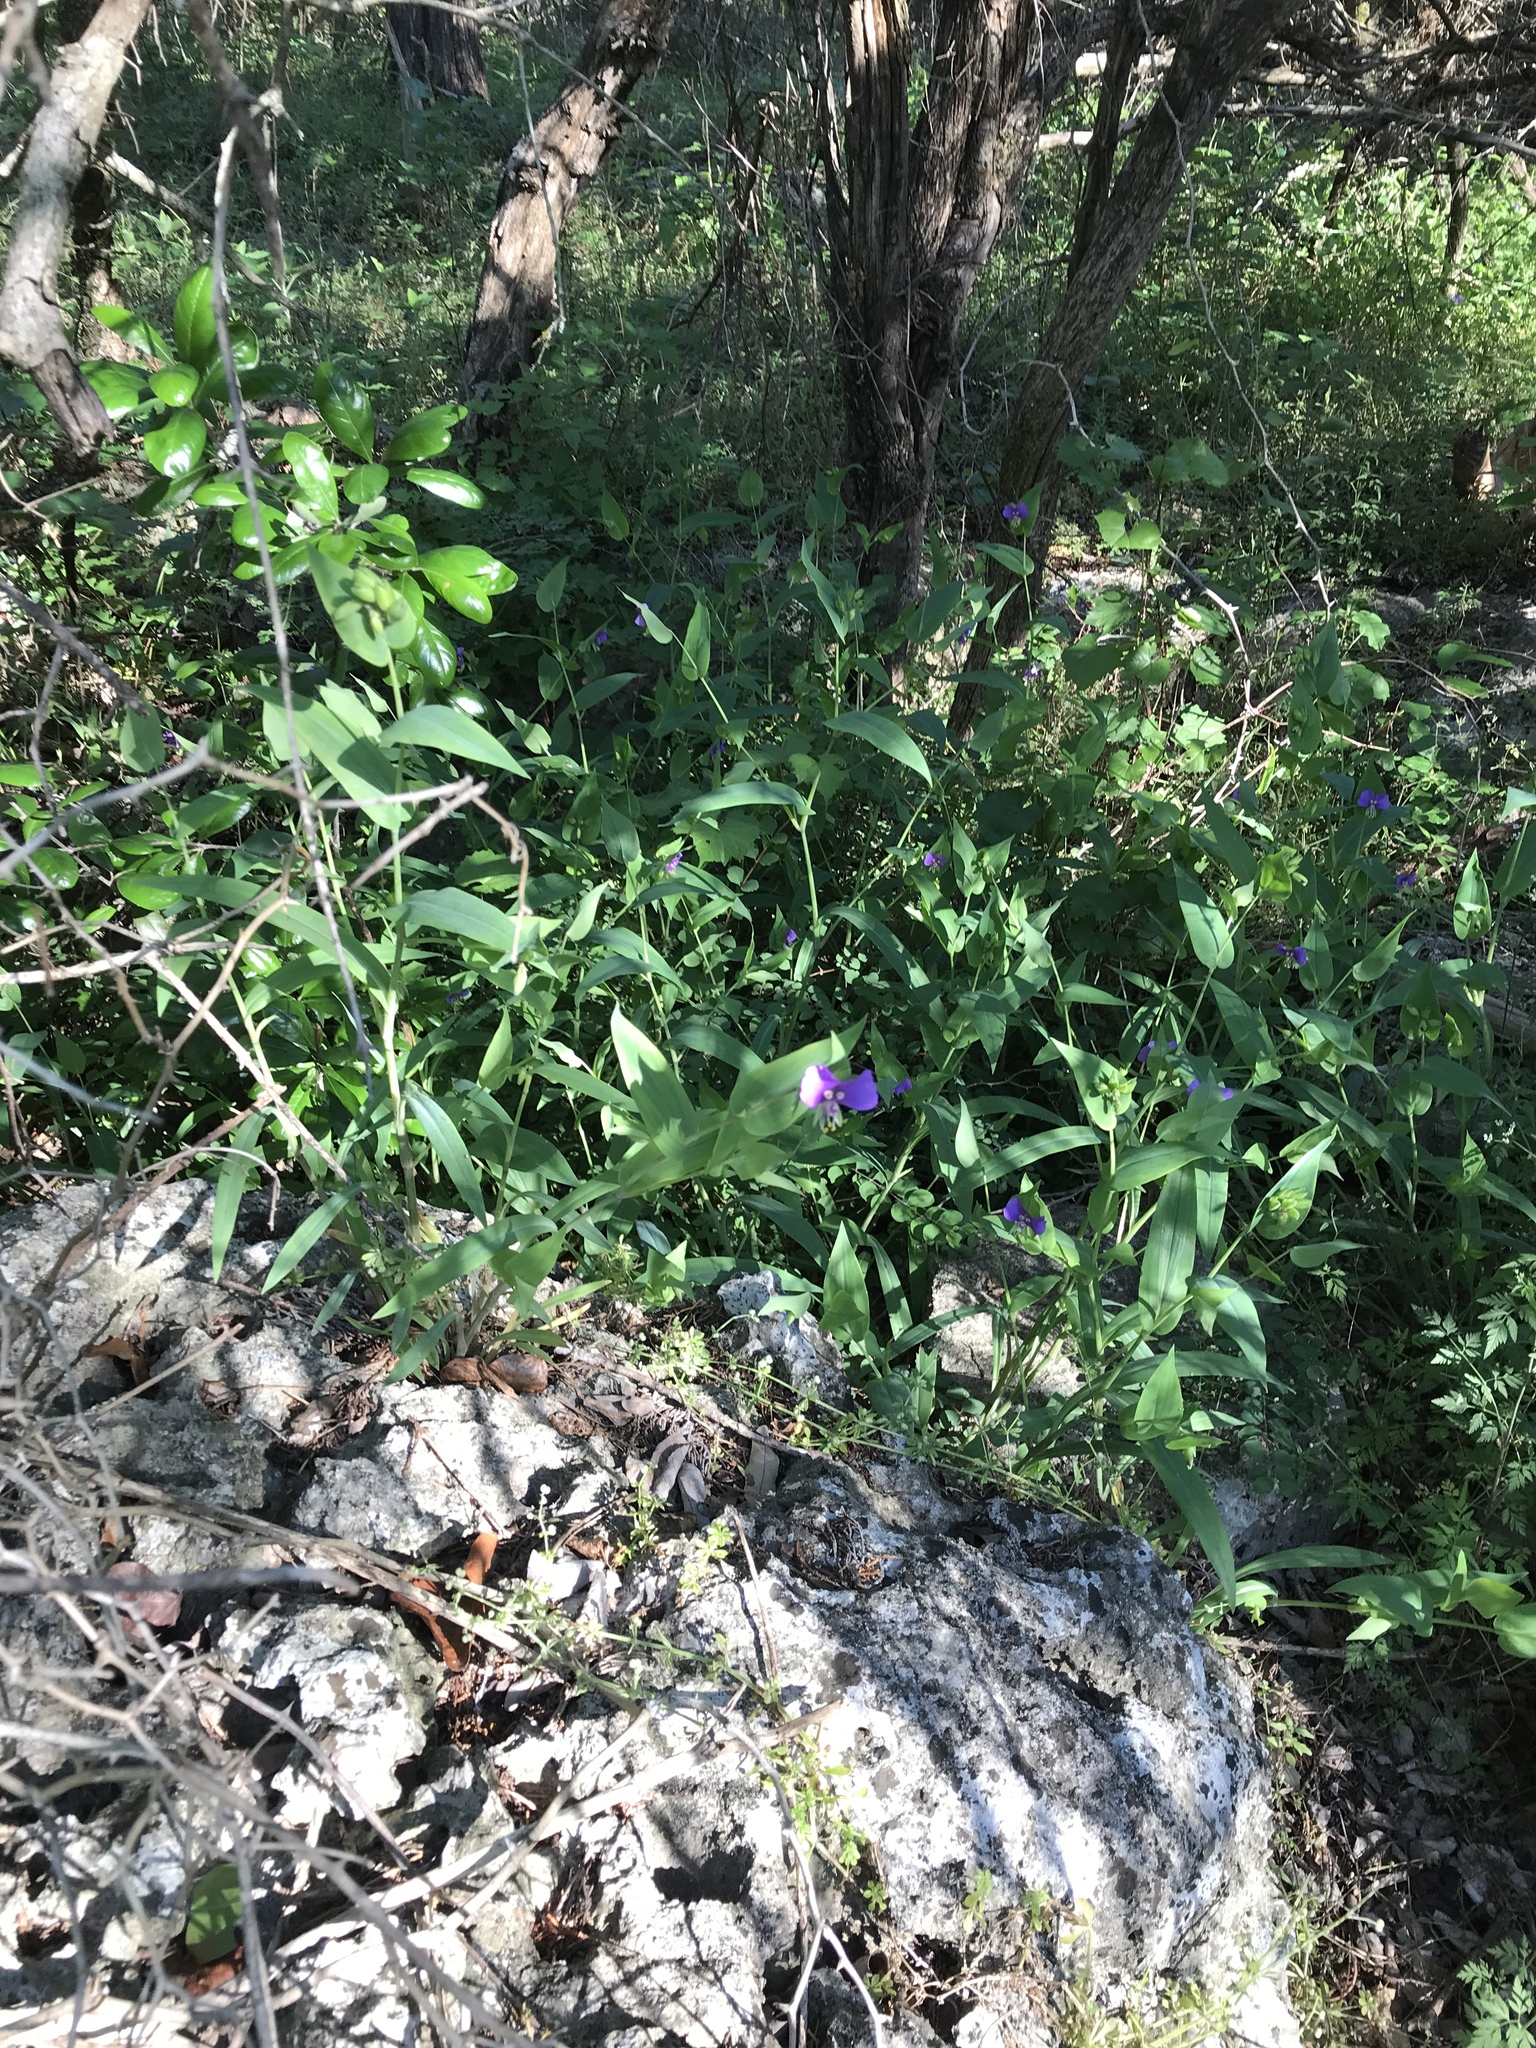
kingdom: Plantae
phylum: Tracheophyta
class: Liliopsida
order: Commelinales
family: Commelinaceae
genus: Tinantia
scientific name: Tinantia anomala
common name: False dayflower
